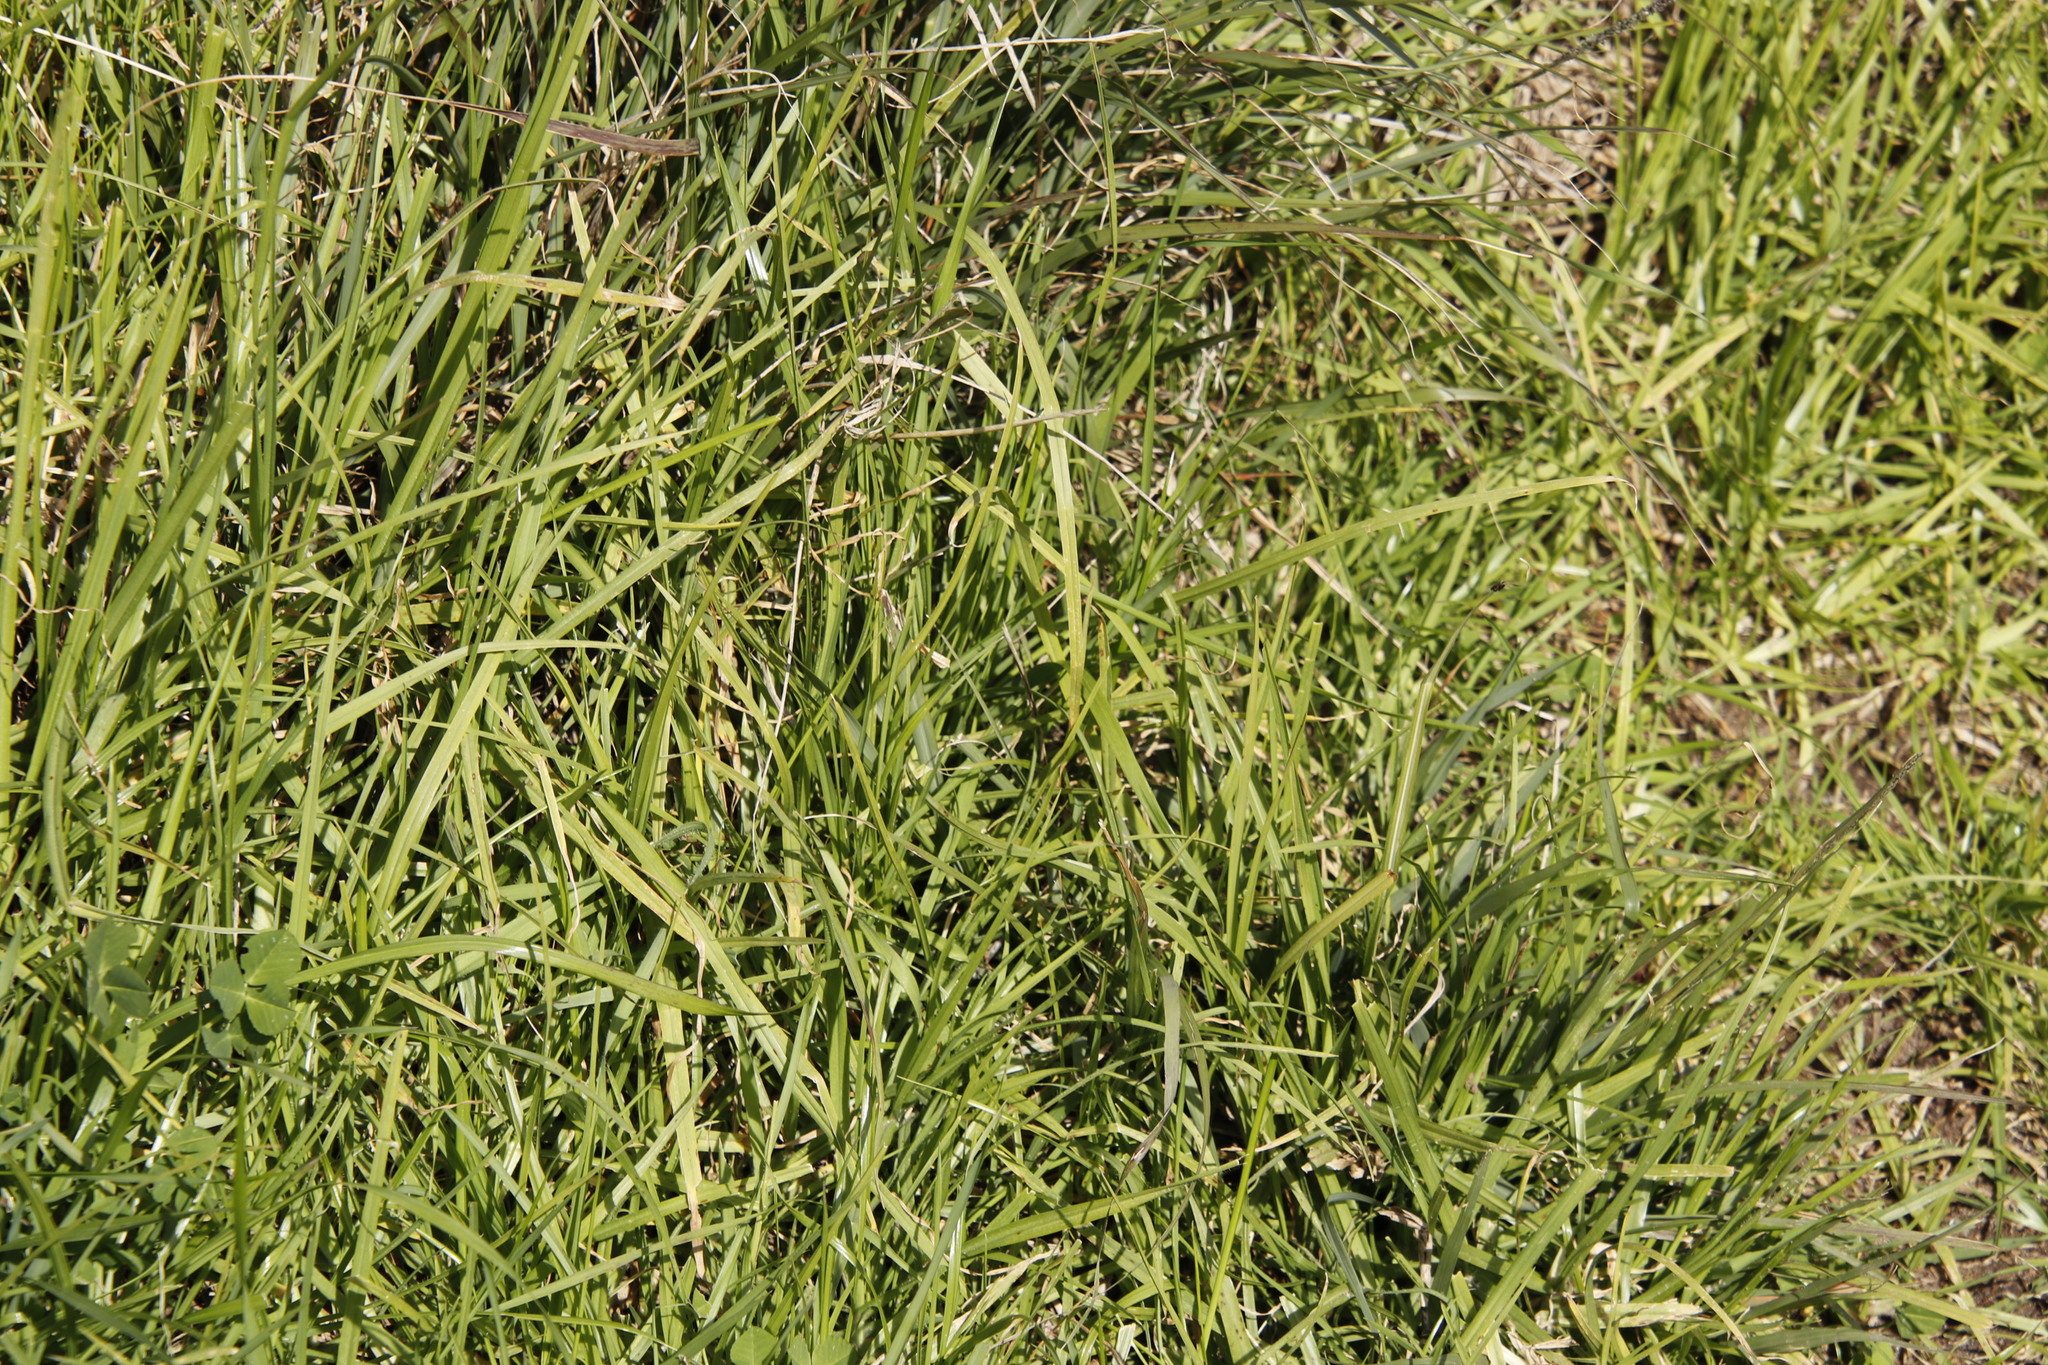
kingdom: Plantae
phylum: Tracheophyta
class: Liliopsida
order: Poales
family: Poaceae
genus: Cenchrus
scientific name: Cenchrus clandestinus
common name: Kikuyugrass
